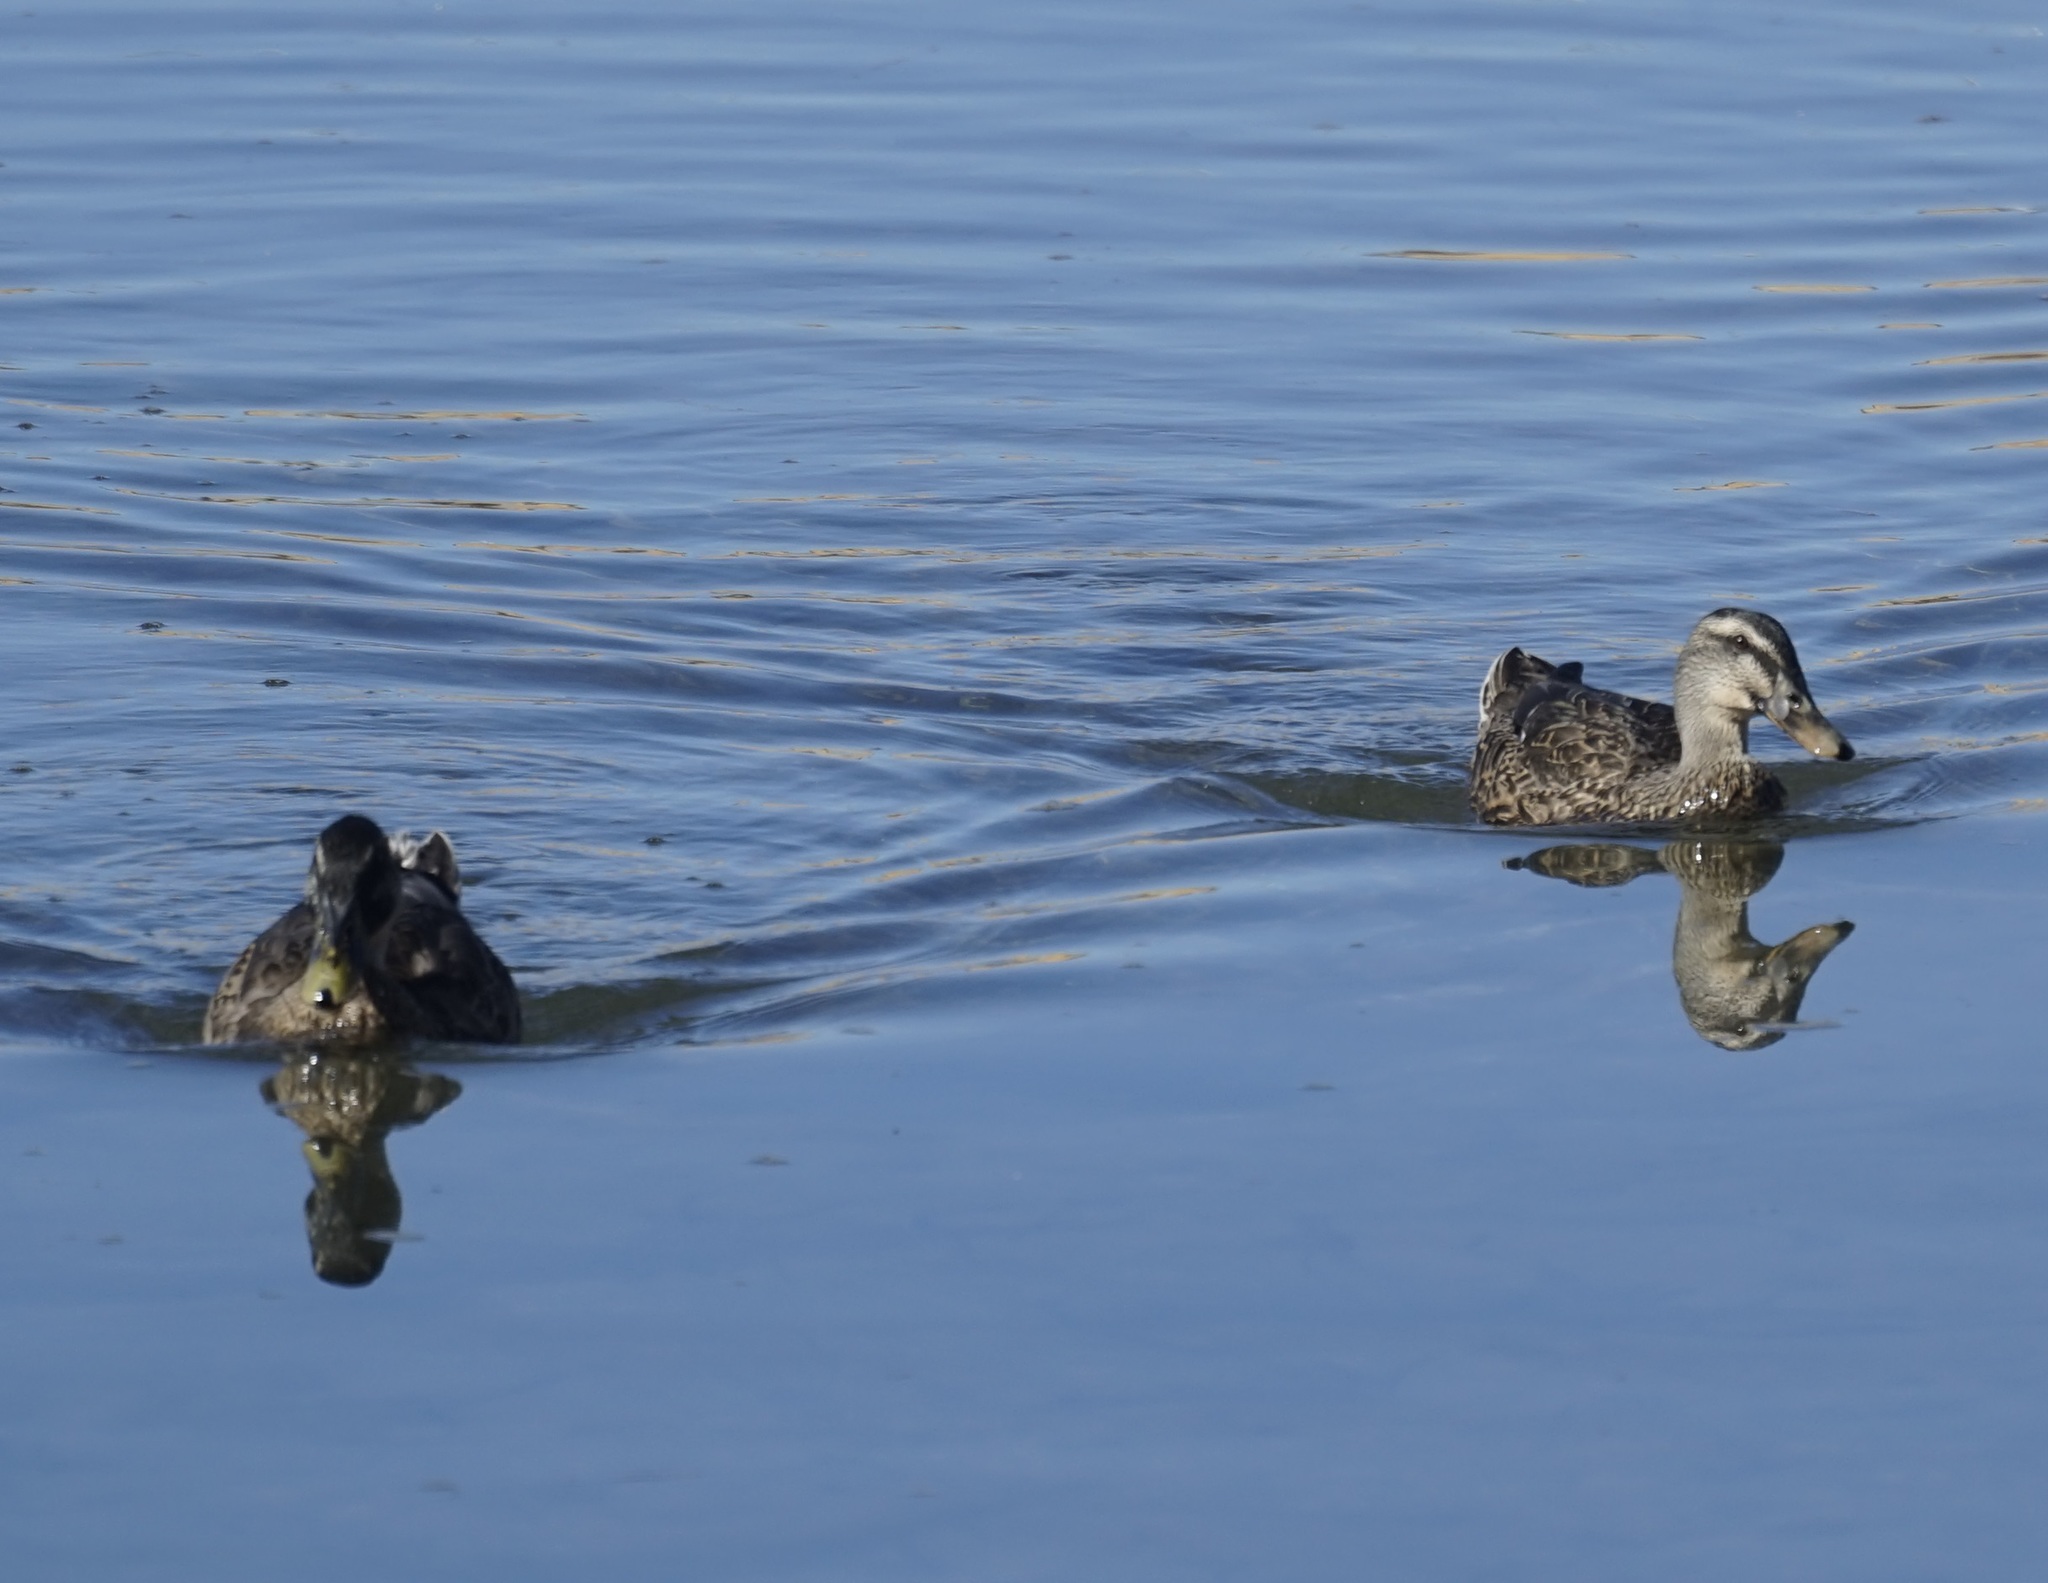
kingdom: Animalia
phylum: Chordata
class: Aves
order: Anseriformes
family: Anatidae
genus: Anas
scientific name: Anas platyrhynchos
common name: Mallard
